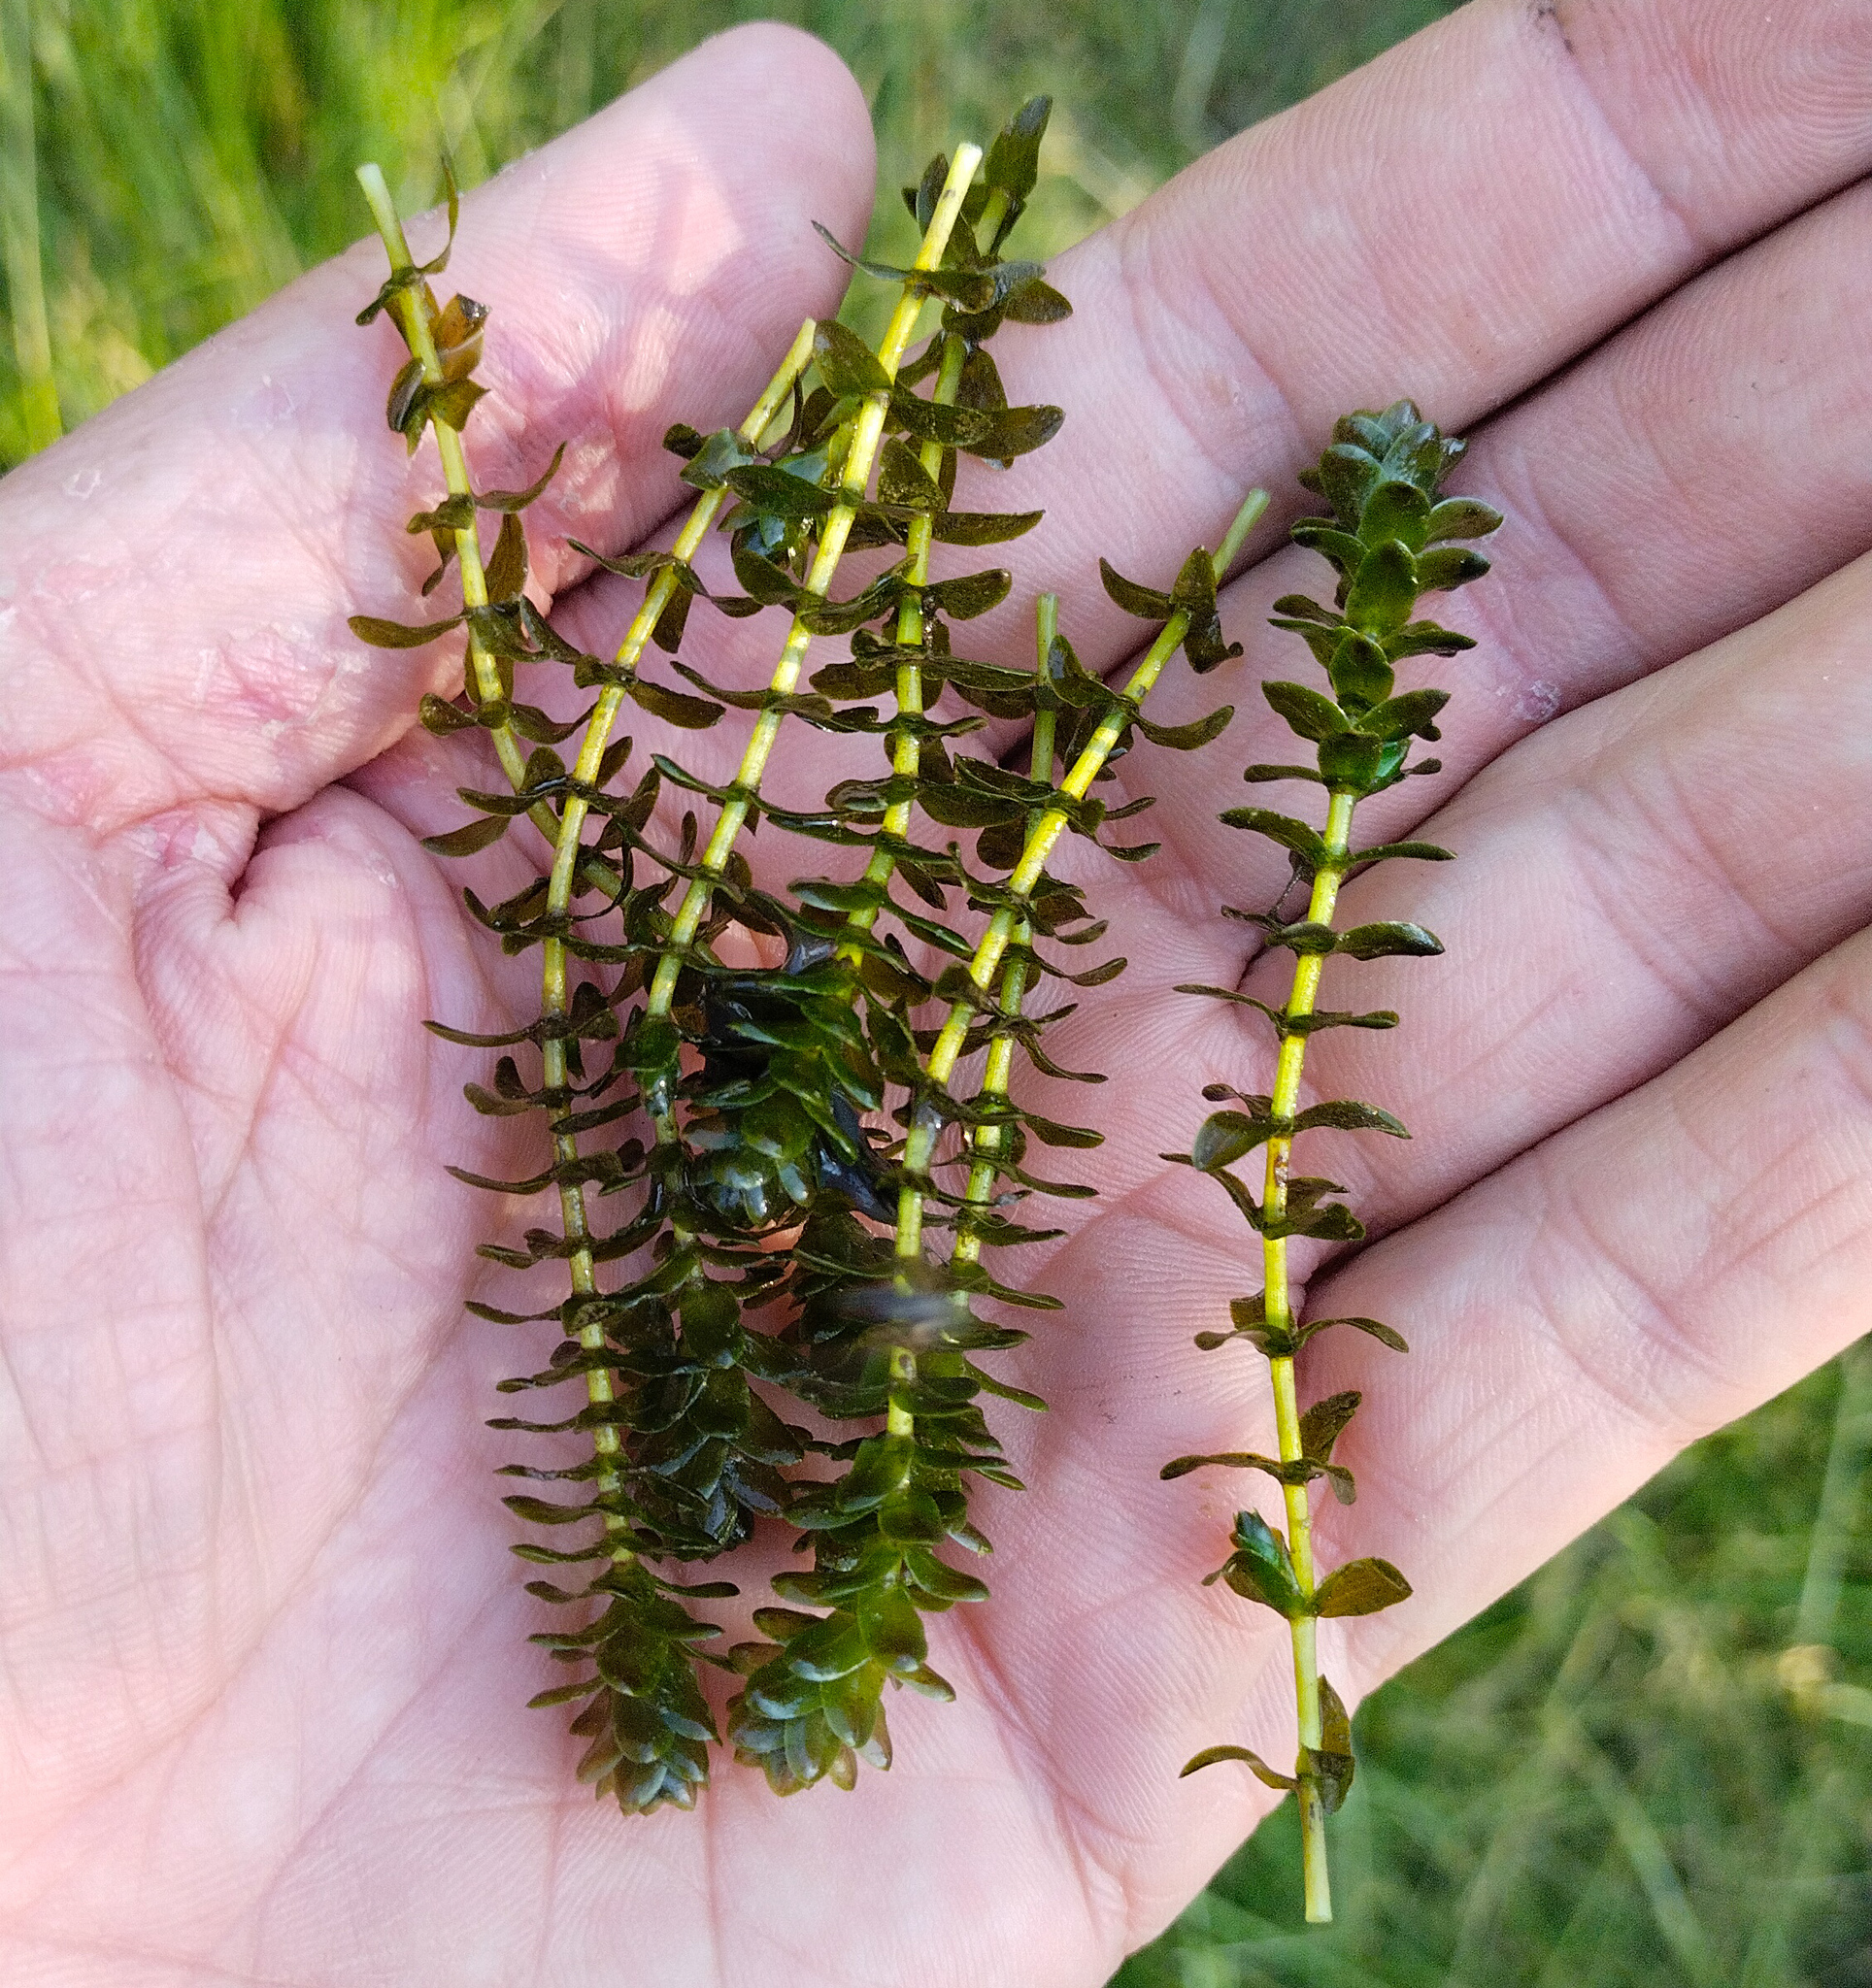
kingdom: Plantae
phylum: Tracheophyta
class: Liliopsida
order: Alismatales
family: Hydrocharitaceae
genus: Elodea
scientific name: Elodea canadensis
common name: Canadian waterweed
